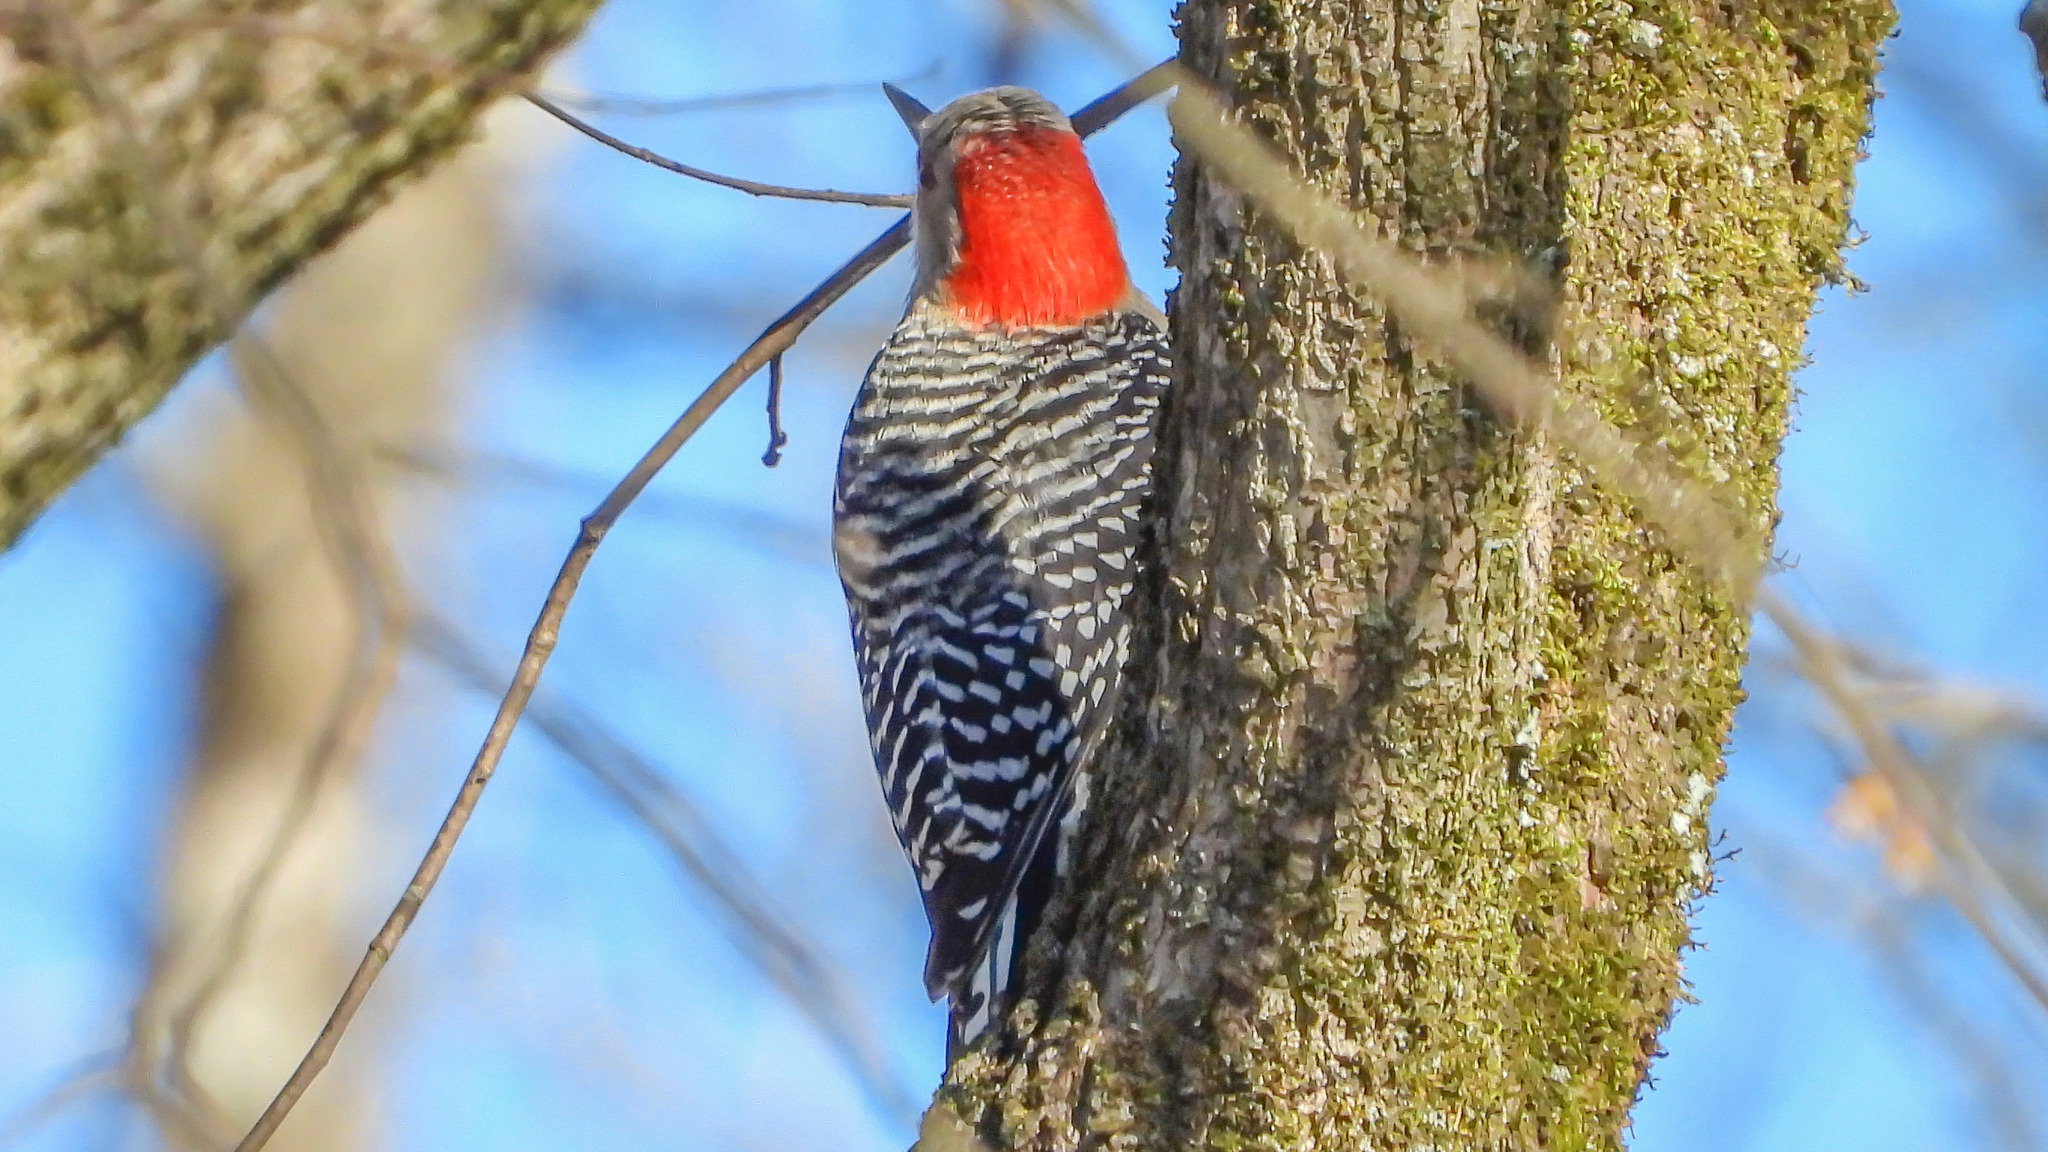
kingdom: Animalia
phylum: Chordata
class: Aves
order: Piciformes
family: Picidae
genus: Melanerpes
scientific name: Melanerpes carolinus
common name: Red-bellied woodpecker
